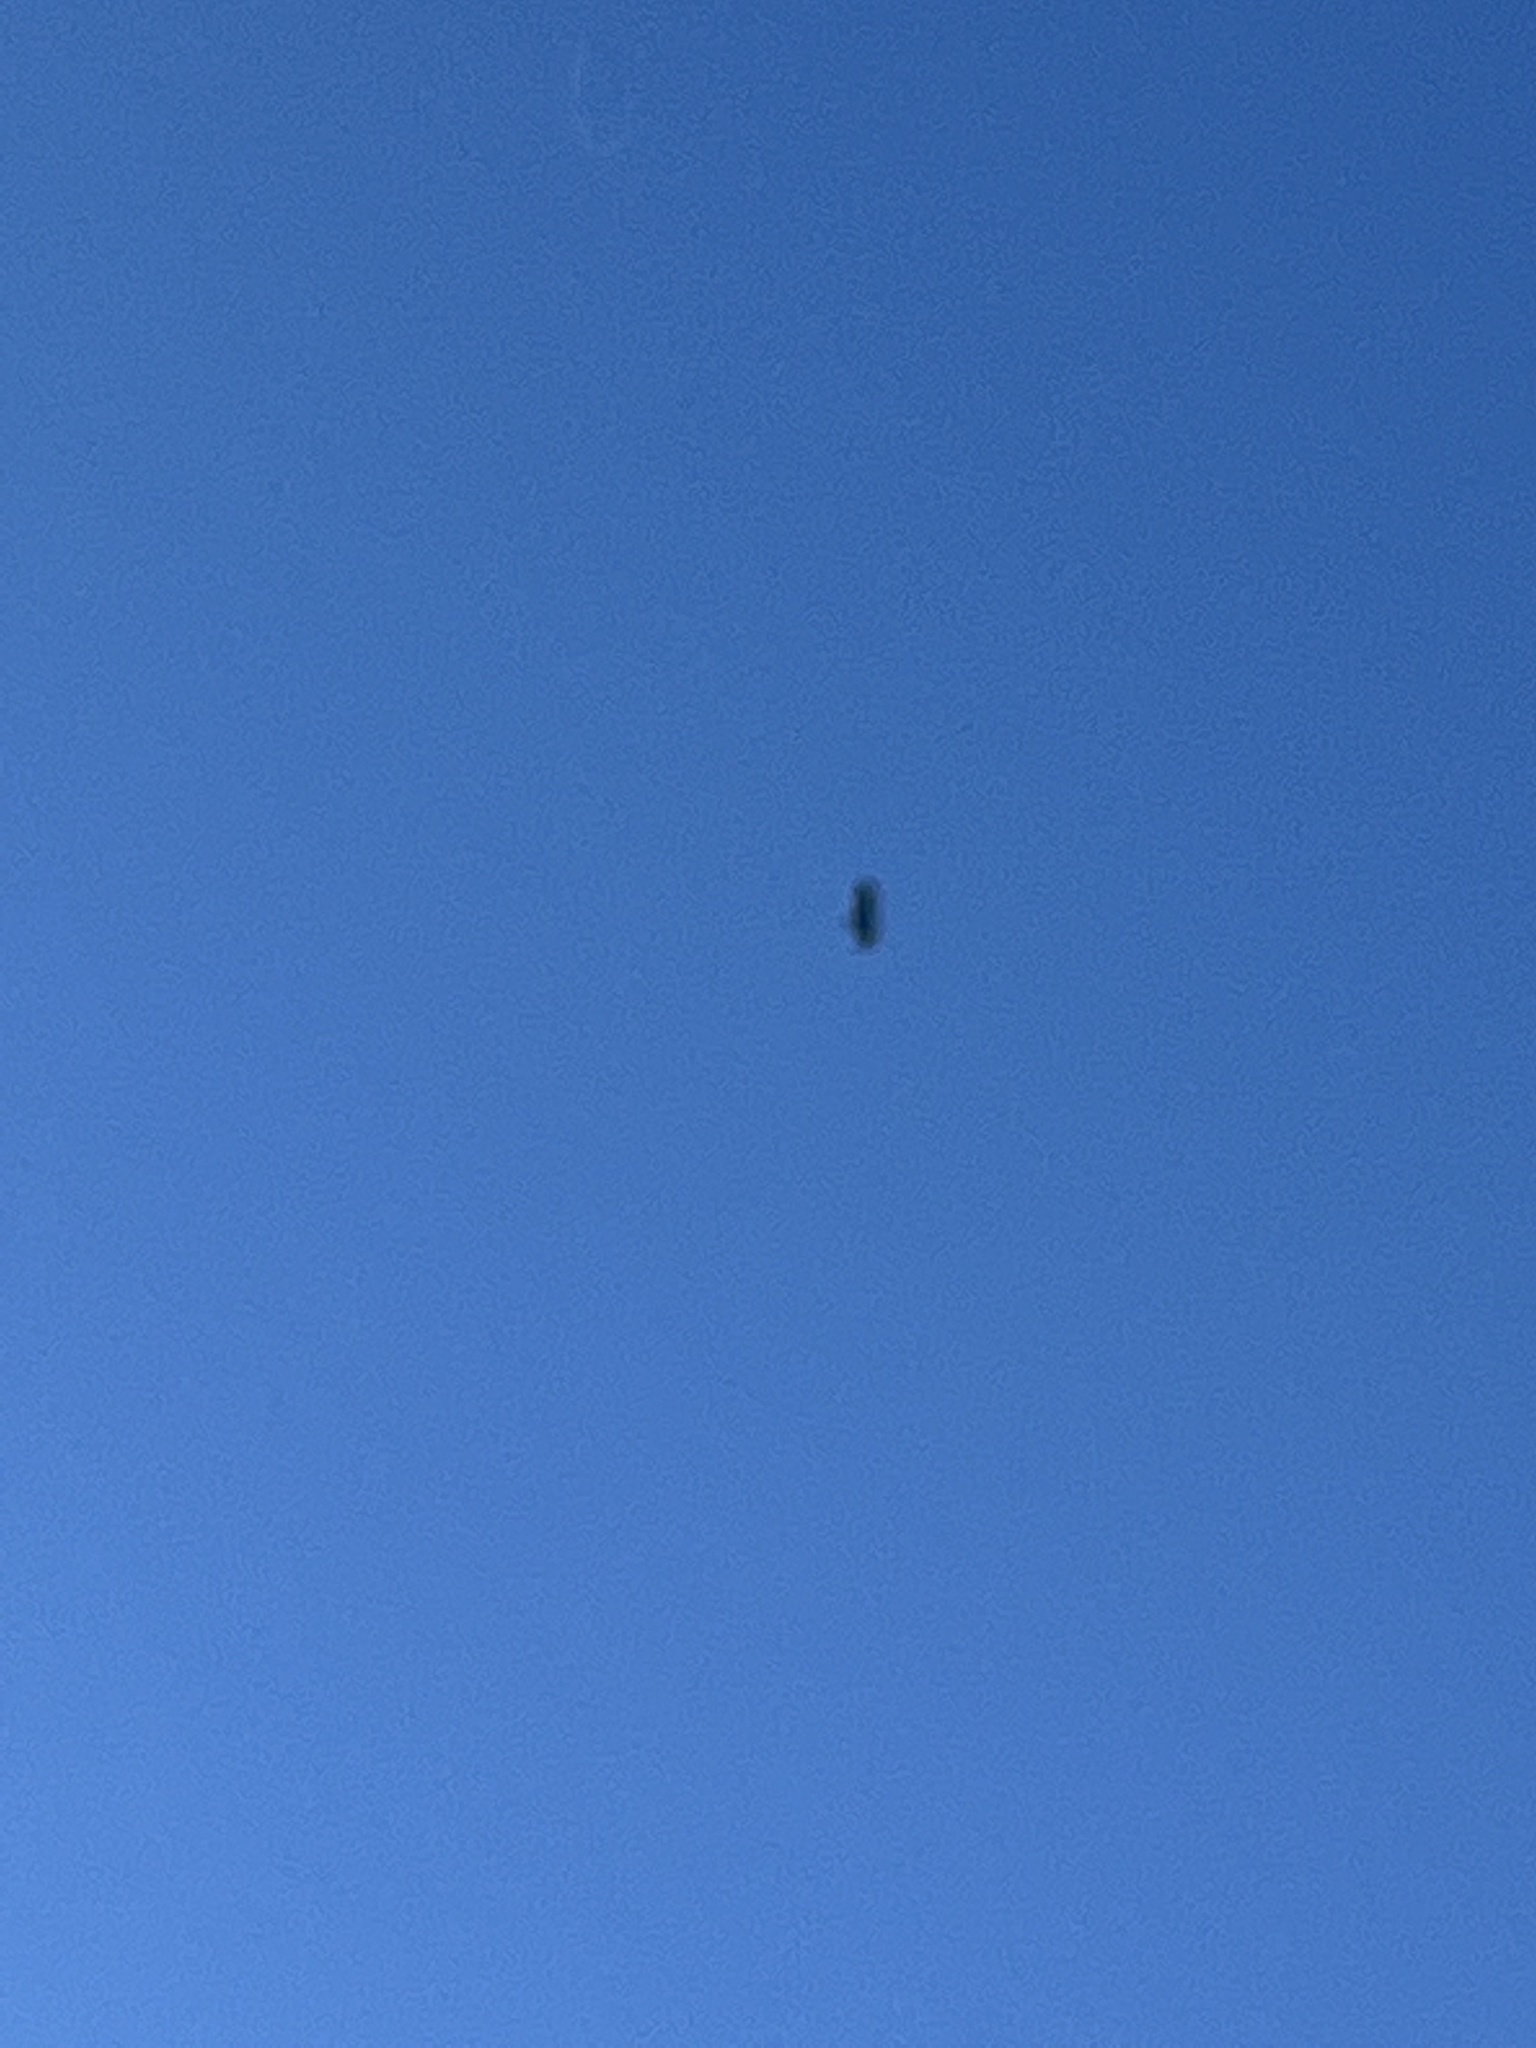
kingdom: Animalia
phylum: Chordata
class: Aves
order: Accipitriformes
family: Cathartidae
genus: Cathartes
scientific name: Cathartes aura
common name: Turkey vulture
